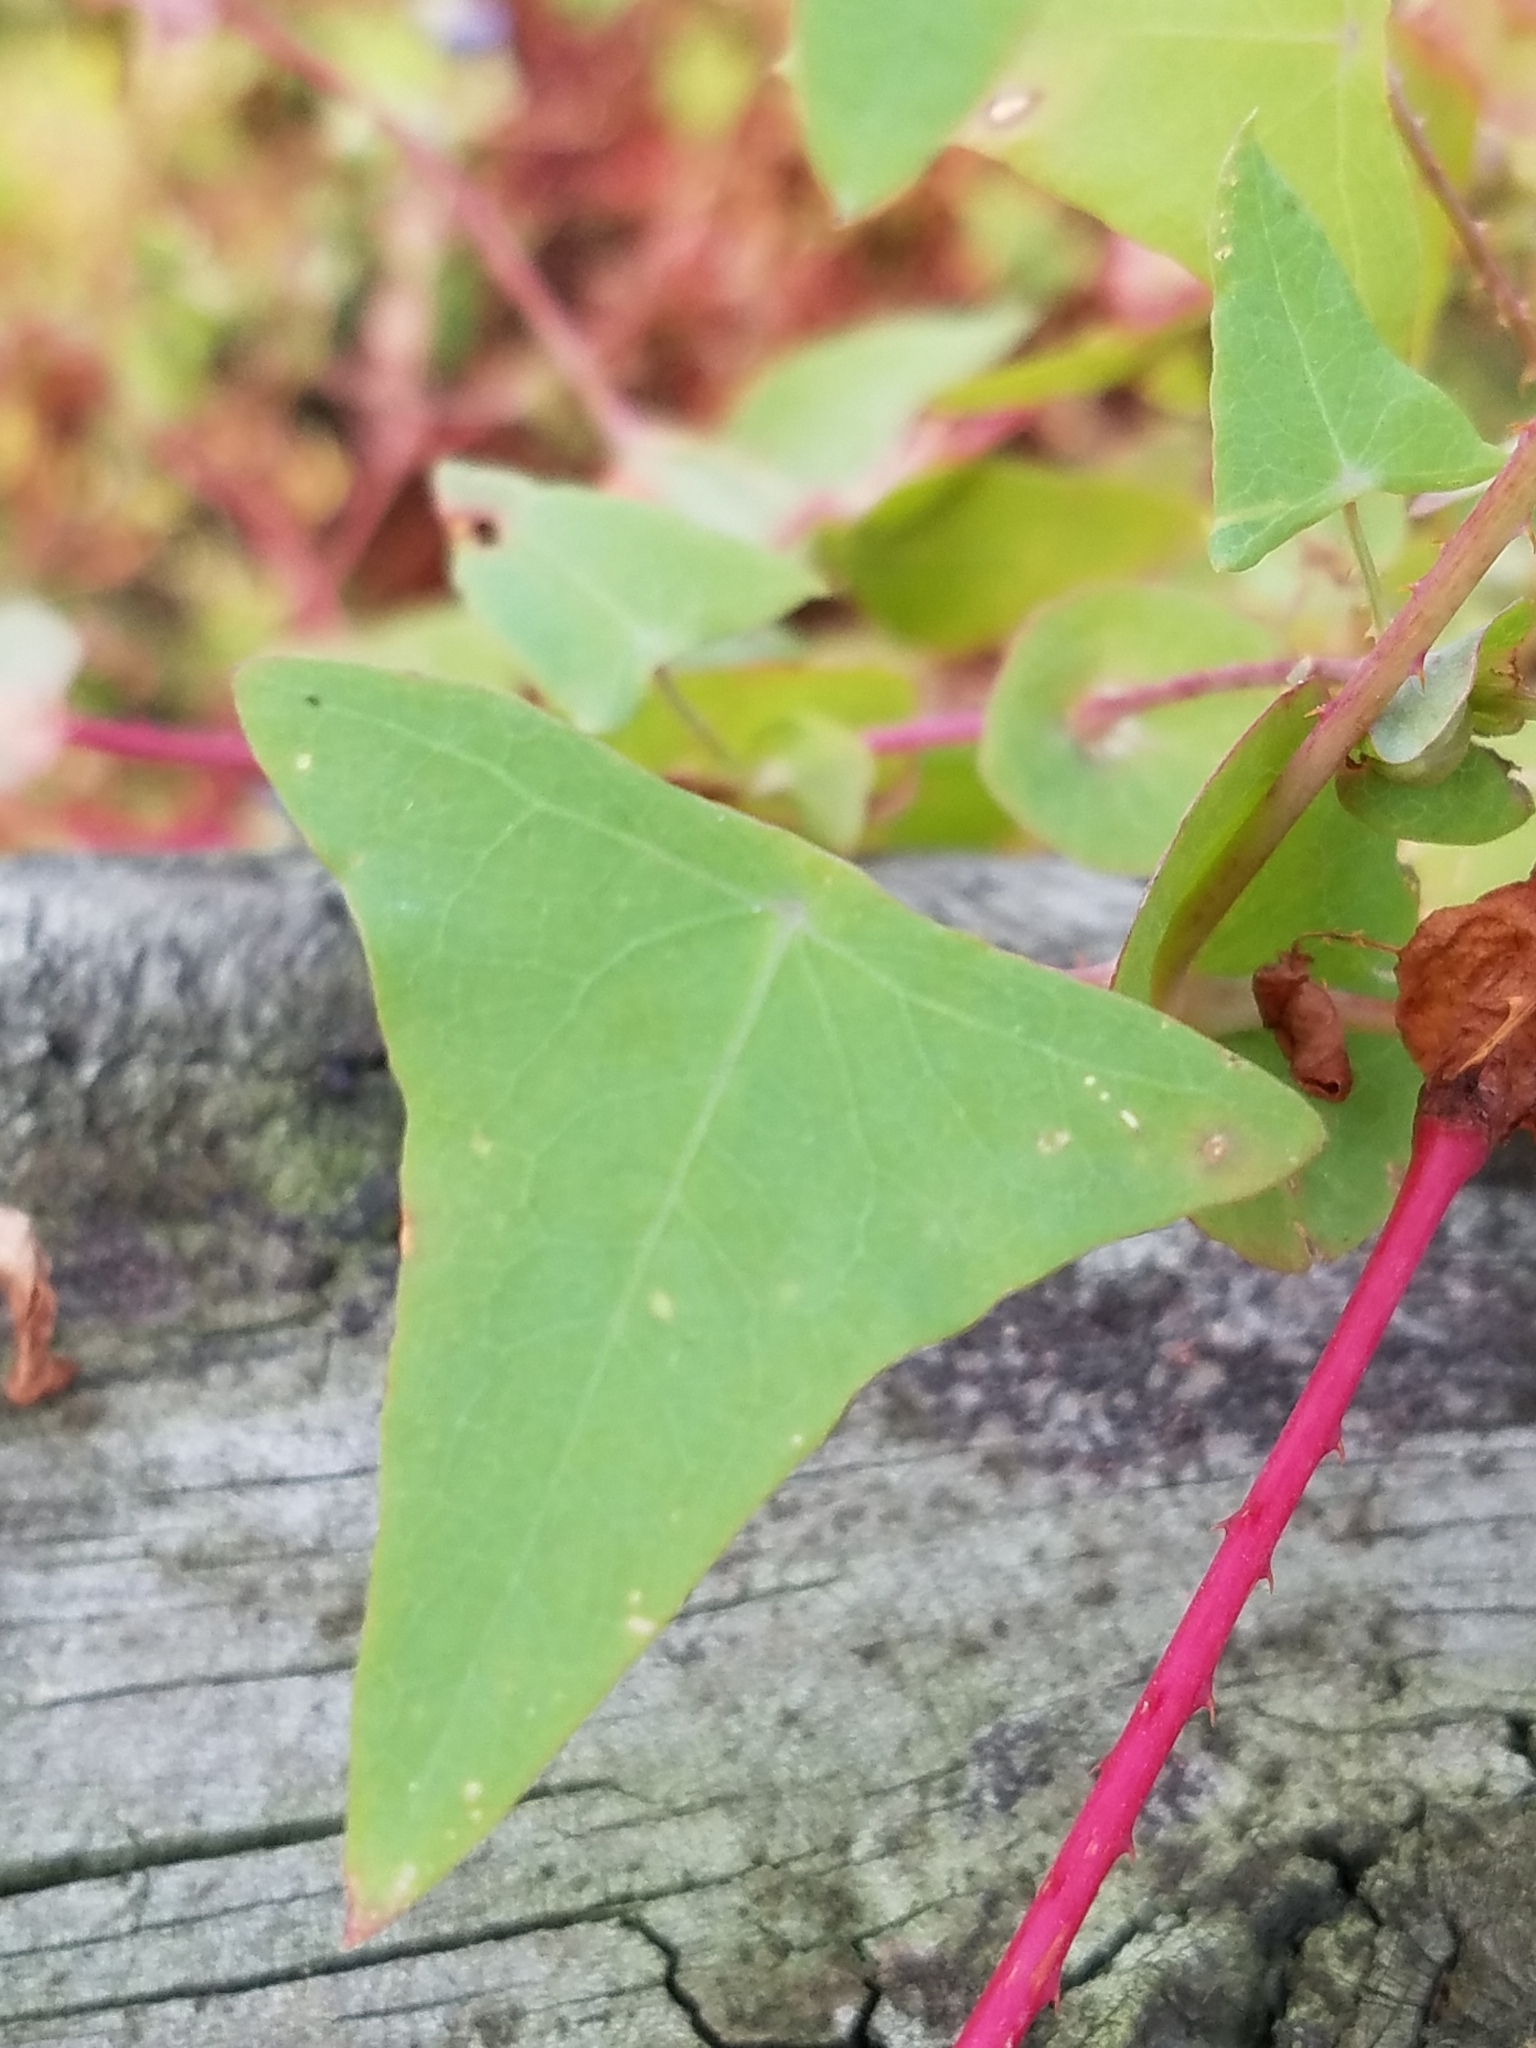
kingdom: Plantae
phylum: Tracheophyta
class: Magnoliopsida
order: Caryophyllales
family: Polygonaceae
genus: Persicaria
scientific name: Persicaria perfoliata
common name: Asiatic tearthumb
